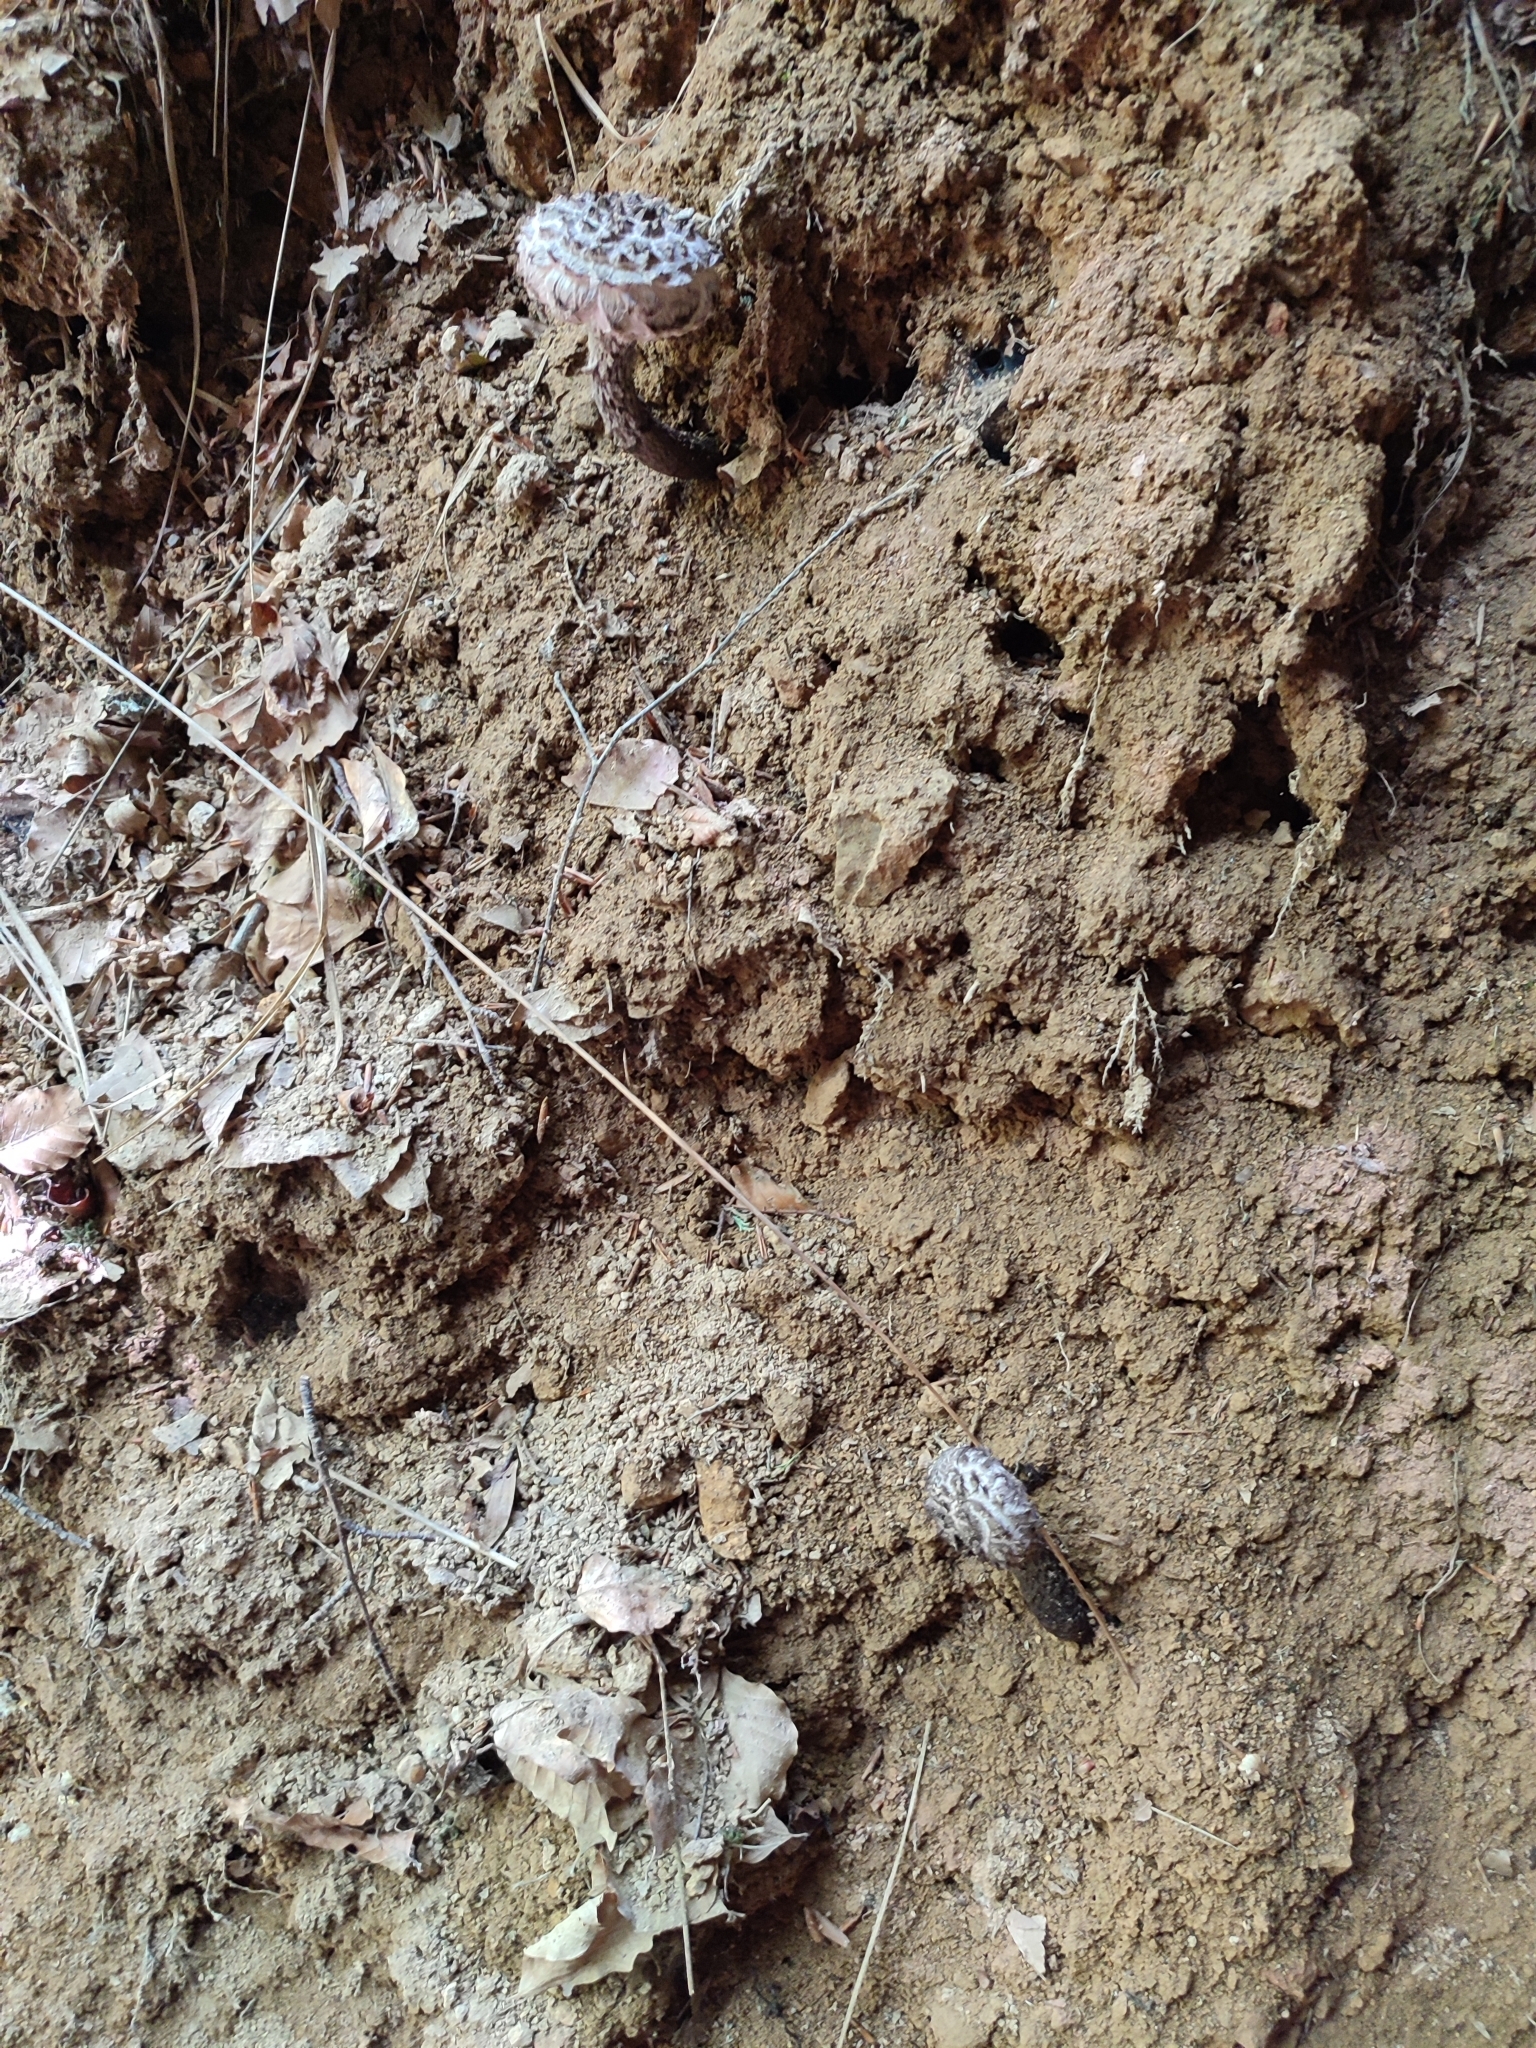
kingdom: Fungi
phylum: Basidiomycota
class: Agaricomycetes
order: Boletales
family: Boletaceae
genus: Strobilomyces
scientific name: Strobilomyces strobilaceus
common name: Old man of the woods
